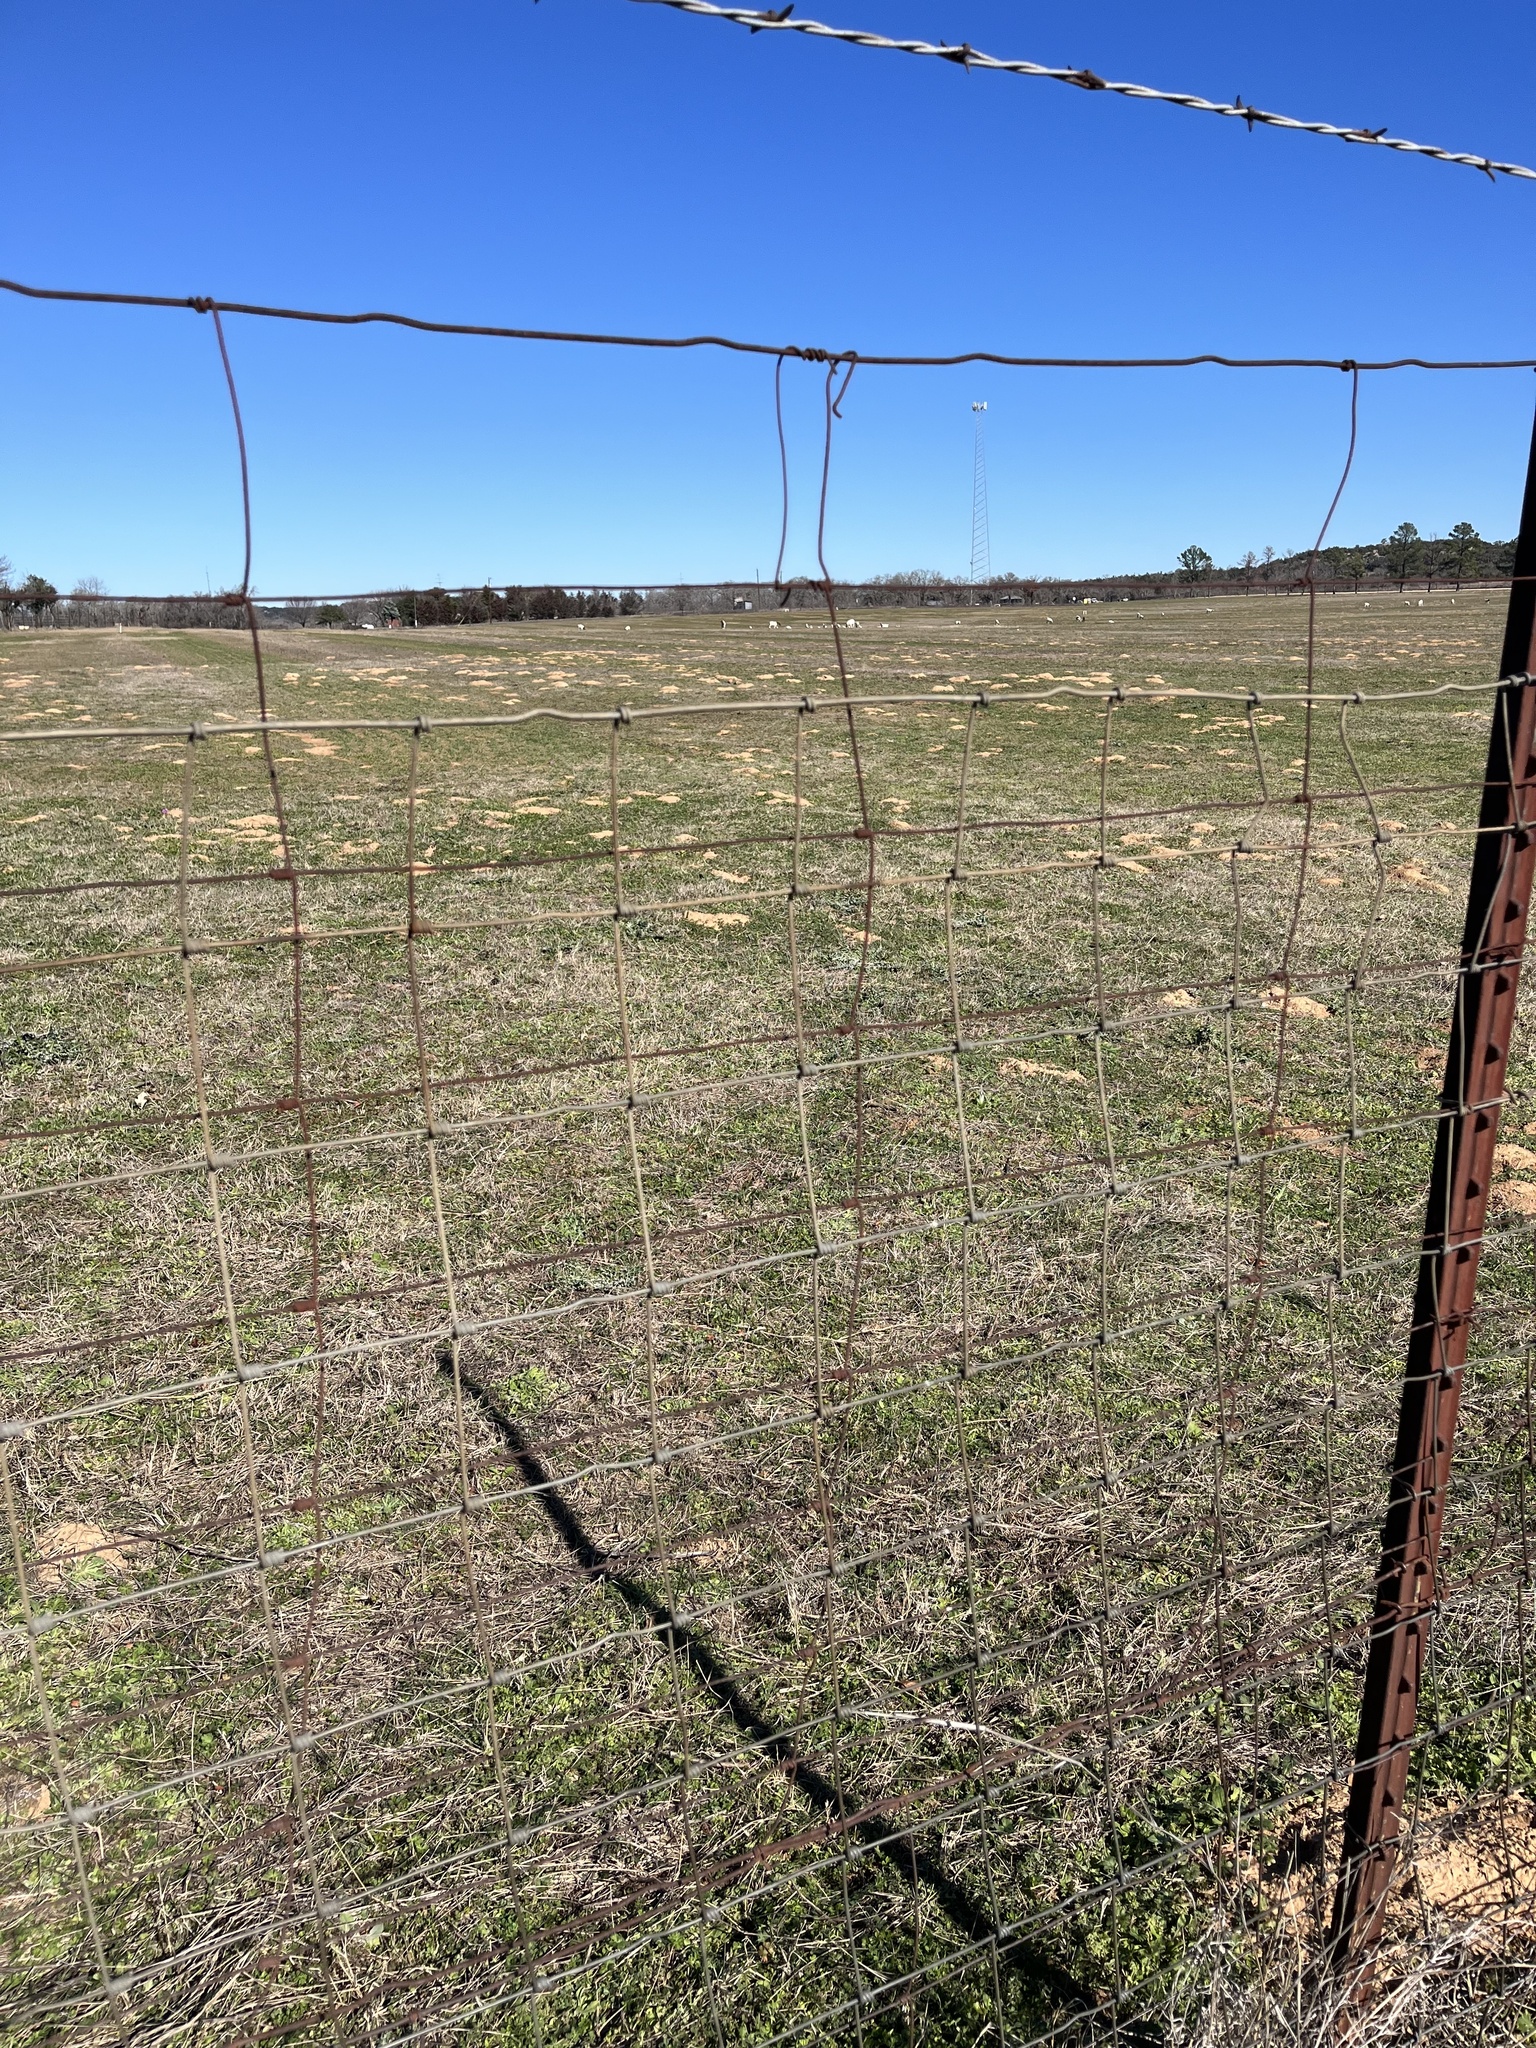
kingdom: Animalia
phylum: Chordata
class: Mammalia
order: Rodentia
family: Geomyidae
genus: Geomys
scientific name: Geomys texensis
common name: Llano pocket gopher
